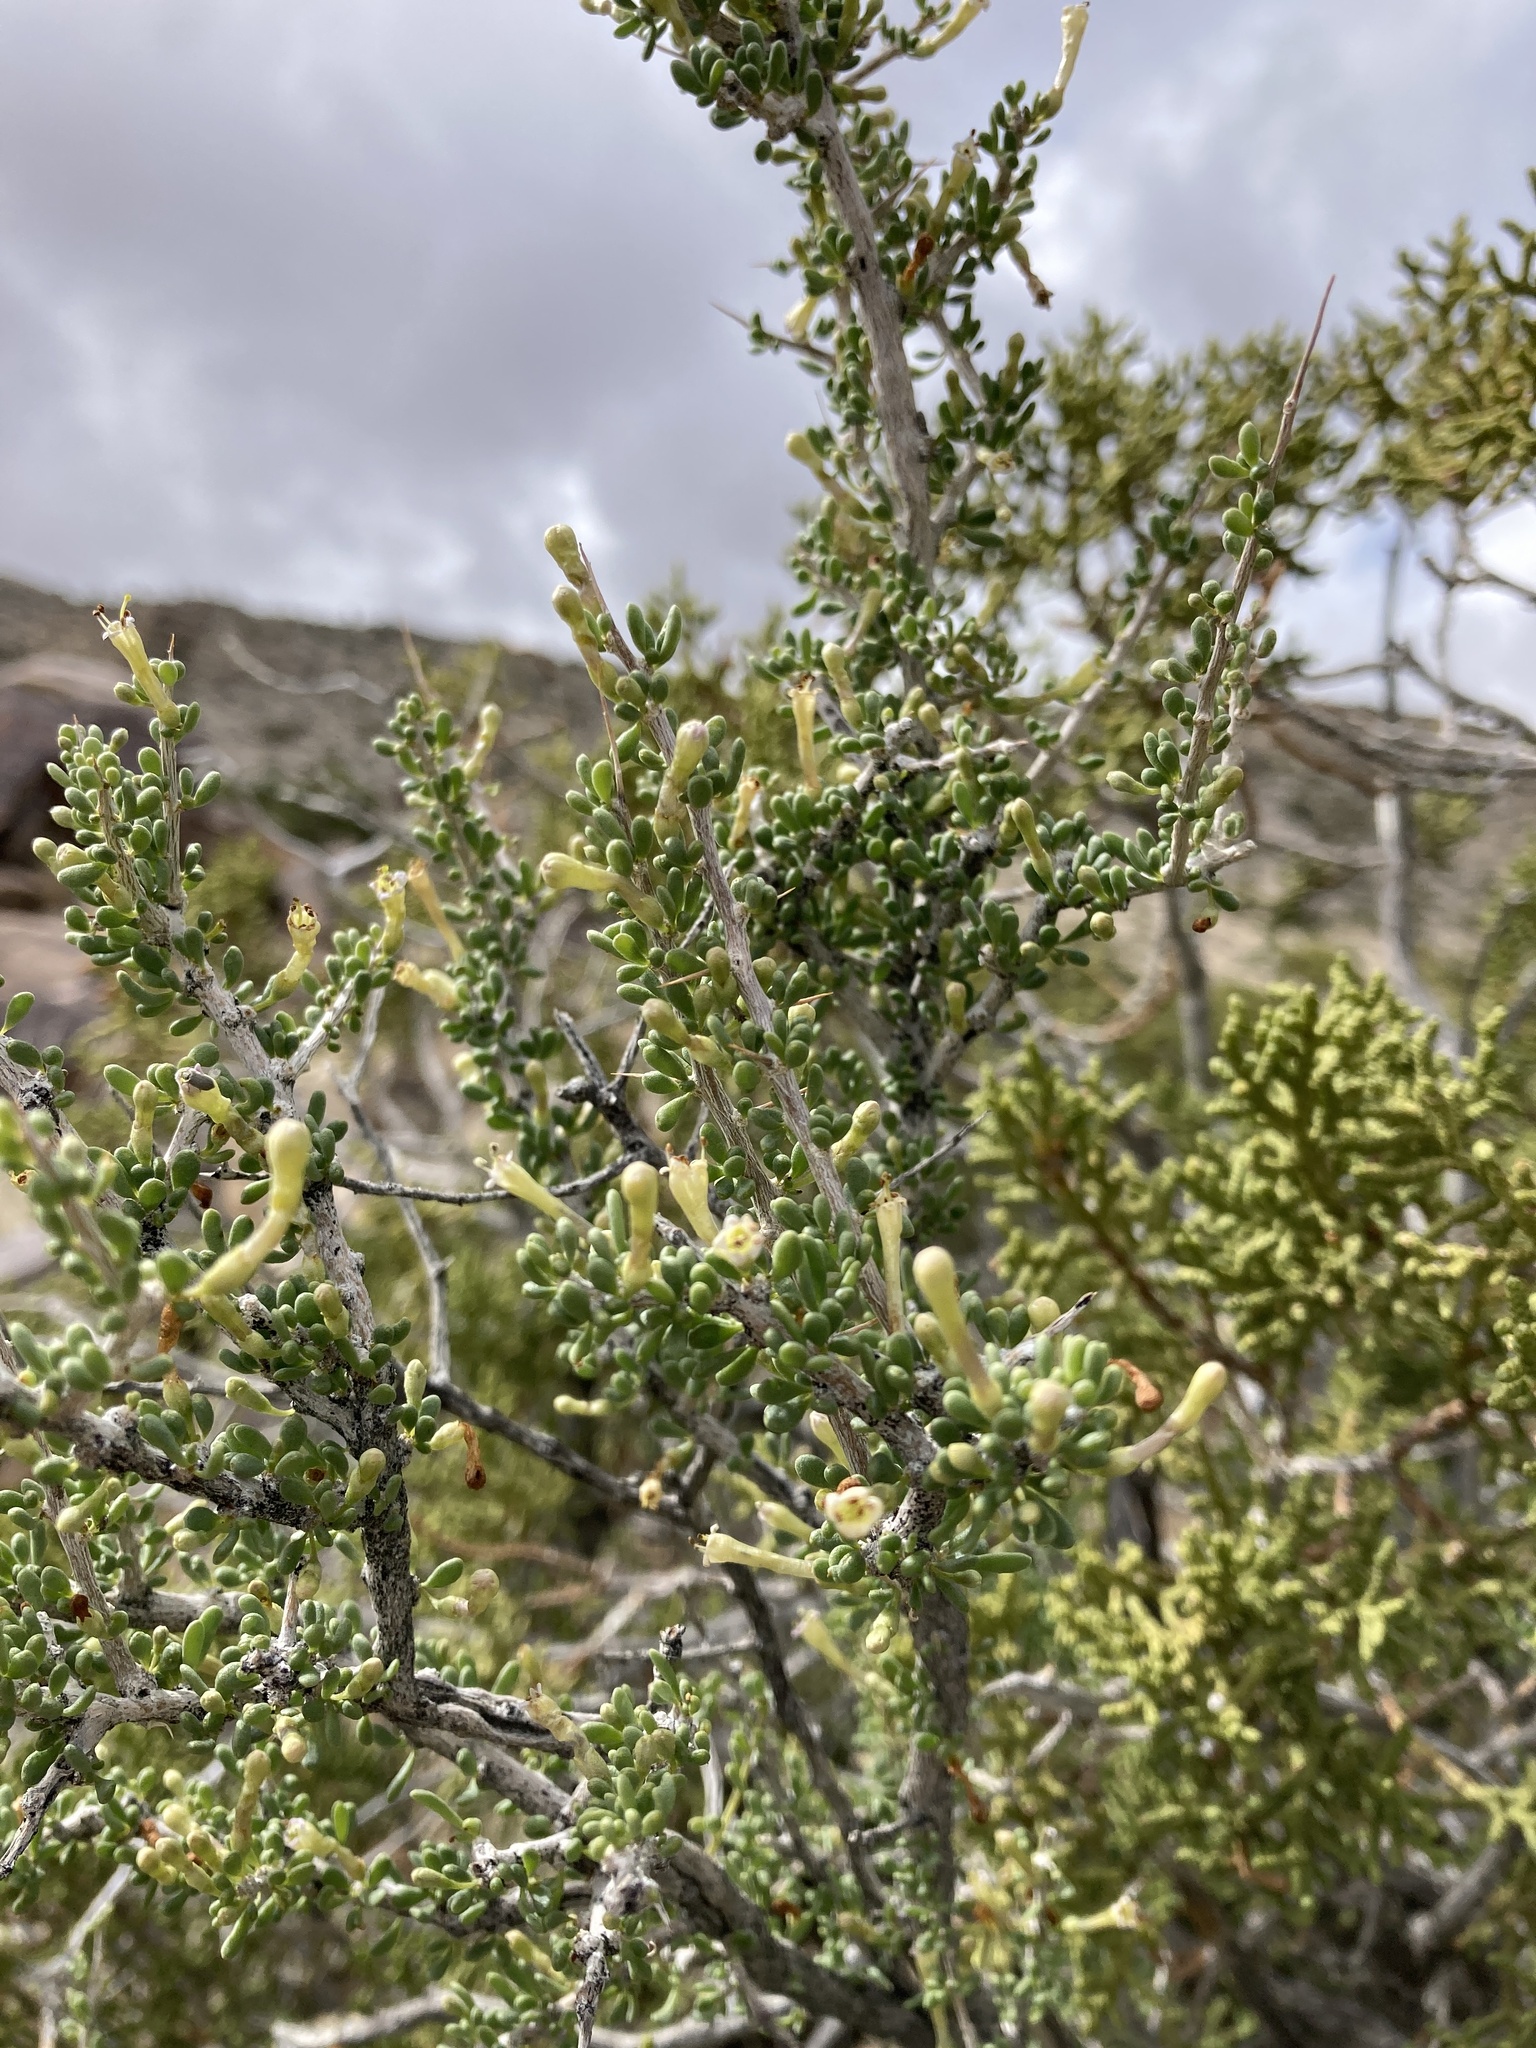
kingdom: Plantae
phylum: Tracheophyta
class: Magnoliopsida
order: Solanales
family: Solanaceae
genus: Lycium
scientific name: Lycium andersonii
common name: Water-jacket
